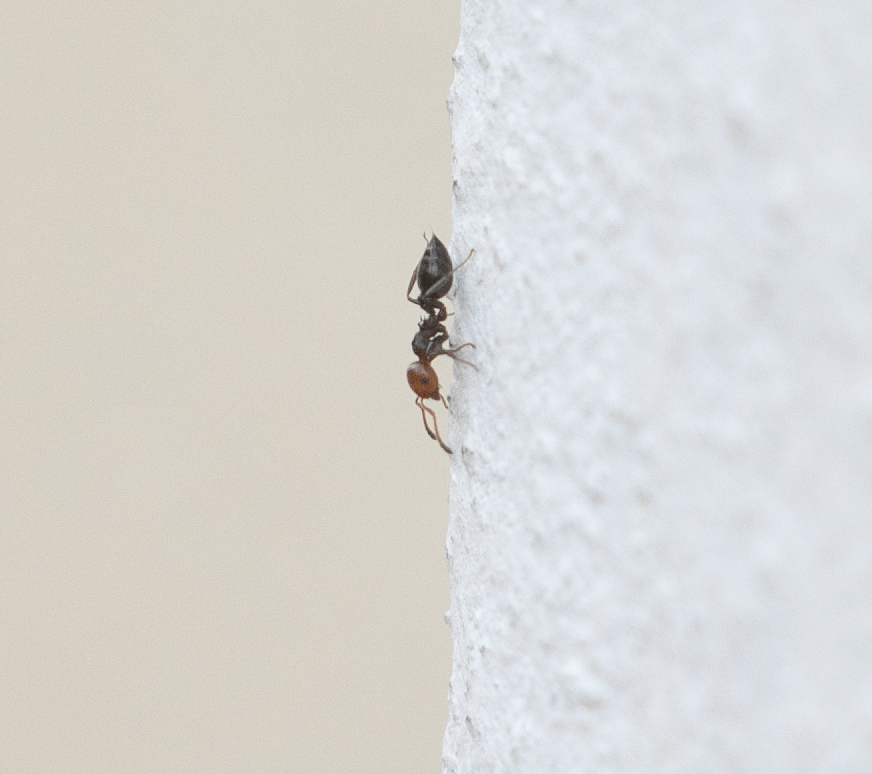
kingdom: Animalia
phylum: Arthropoda
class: Insecta
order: Hymenoptera
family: Formicidae
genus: Crematogaster
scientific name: Crematogaster scutellaris
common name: Fourmi du liège
